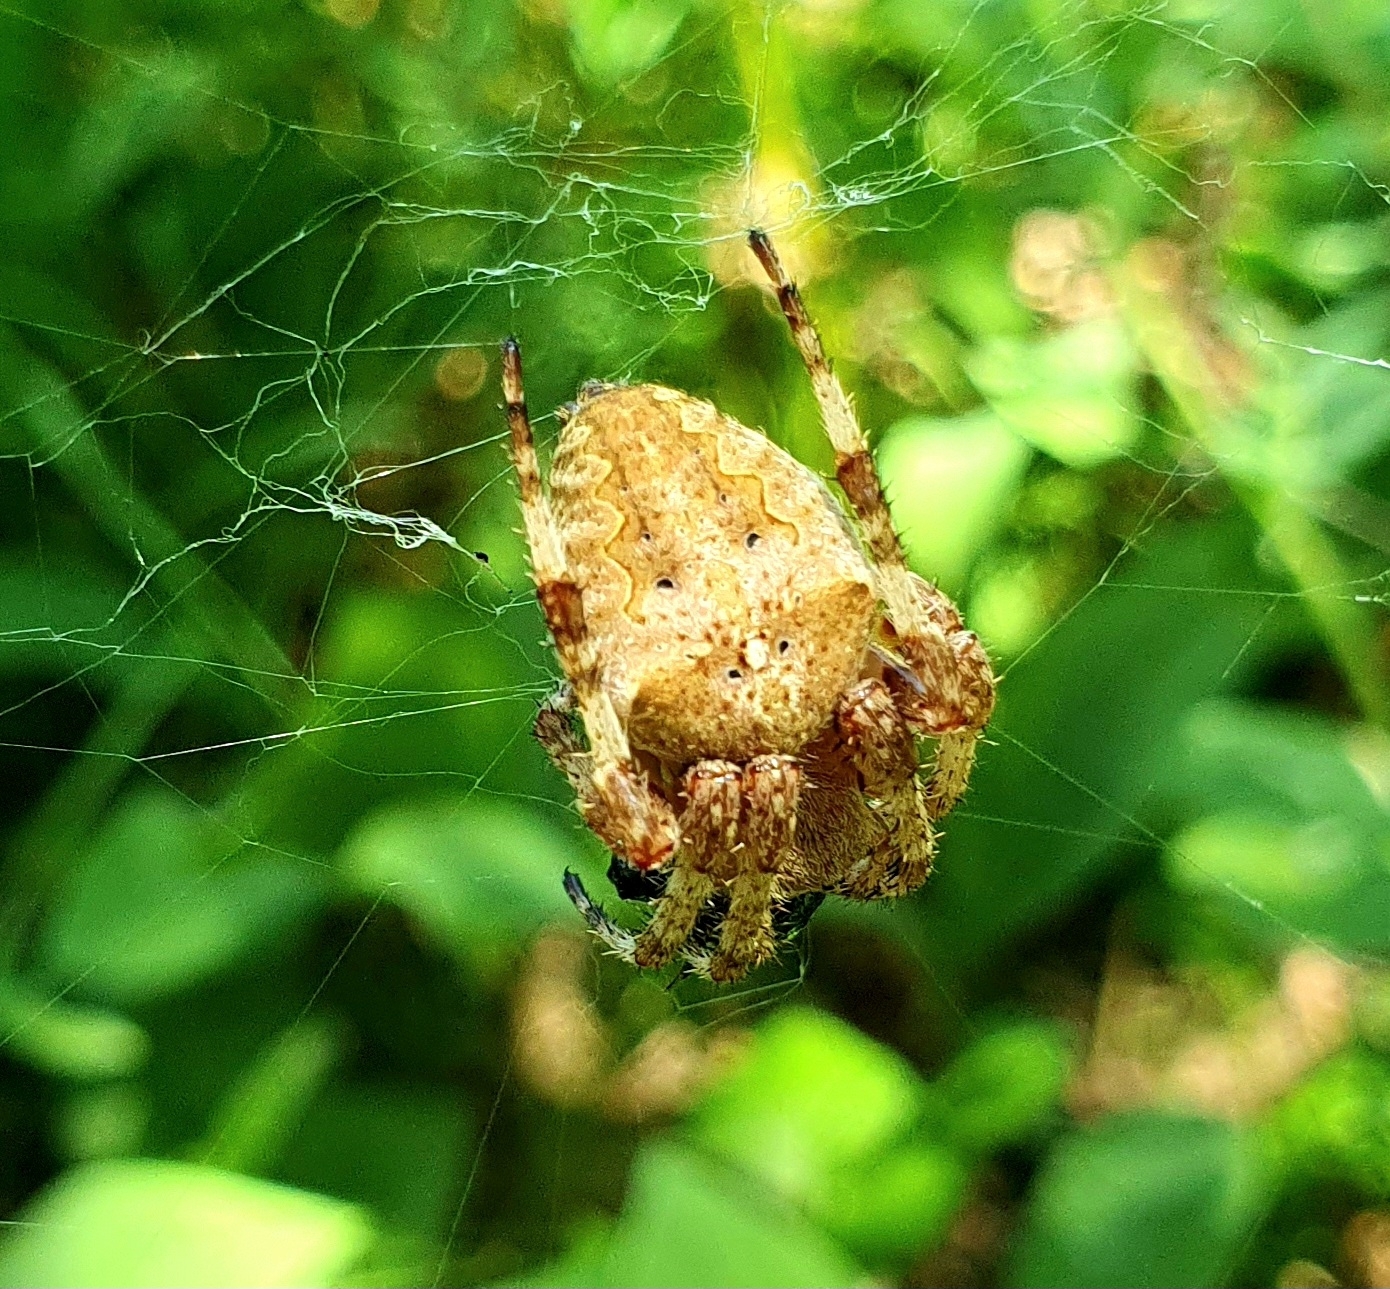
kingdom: Animalia
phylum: Arthropoda
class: Arachnida
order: Araneae
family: Araneidae
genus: Araneus
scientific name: Araneus angulatus
